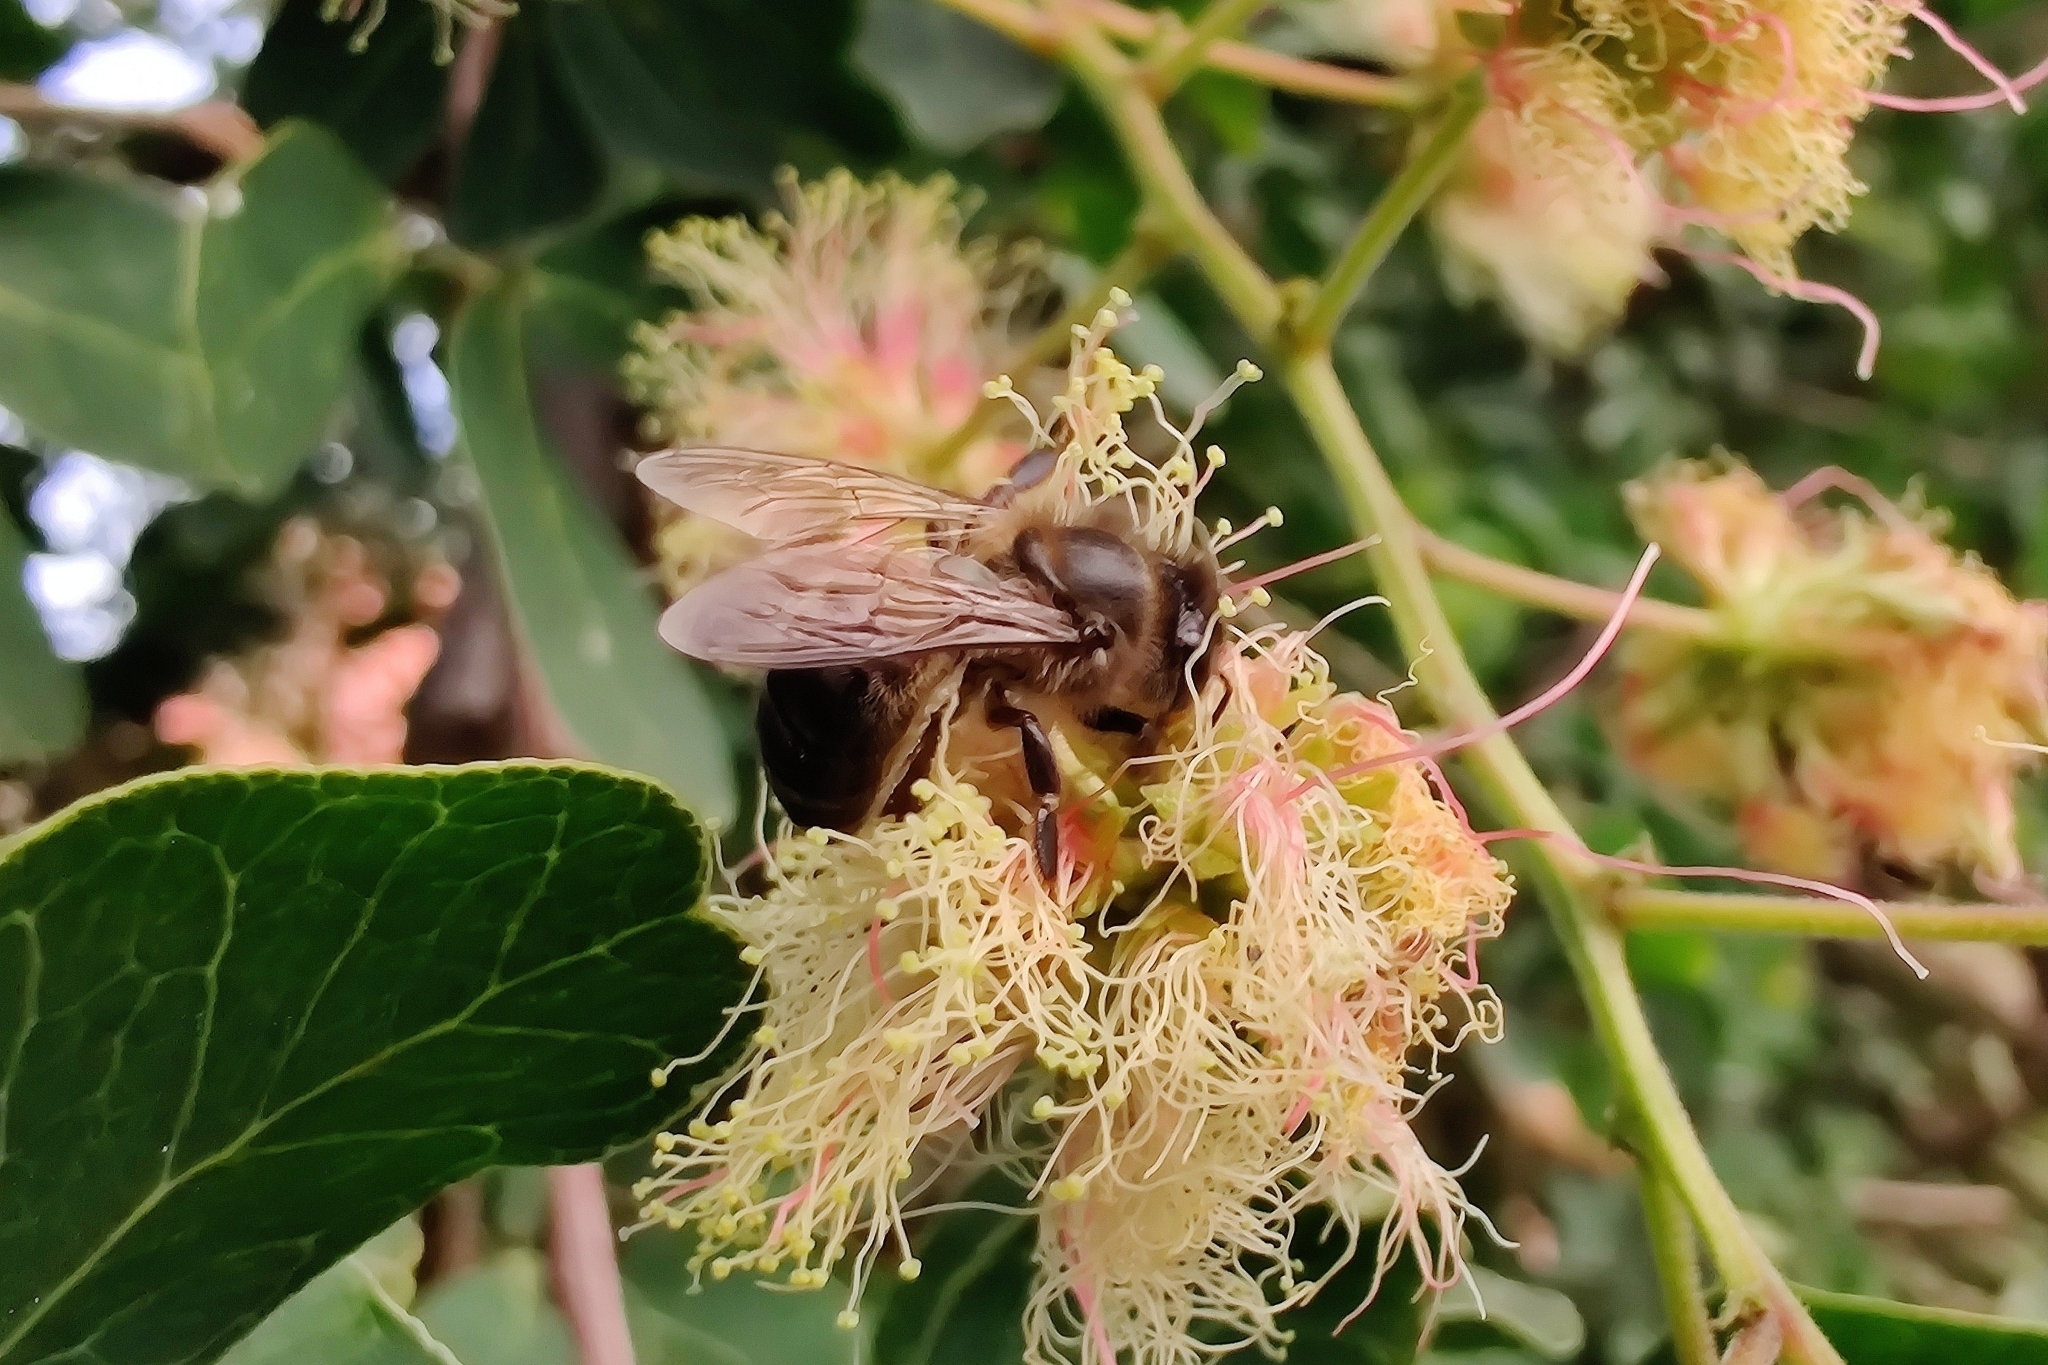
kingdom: Animalia
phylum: Arthropoda
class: Insecta
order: Hymenoptera
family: Apidae
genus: Apis
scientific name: Apis mellifera
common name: Honey bee
